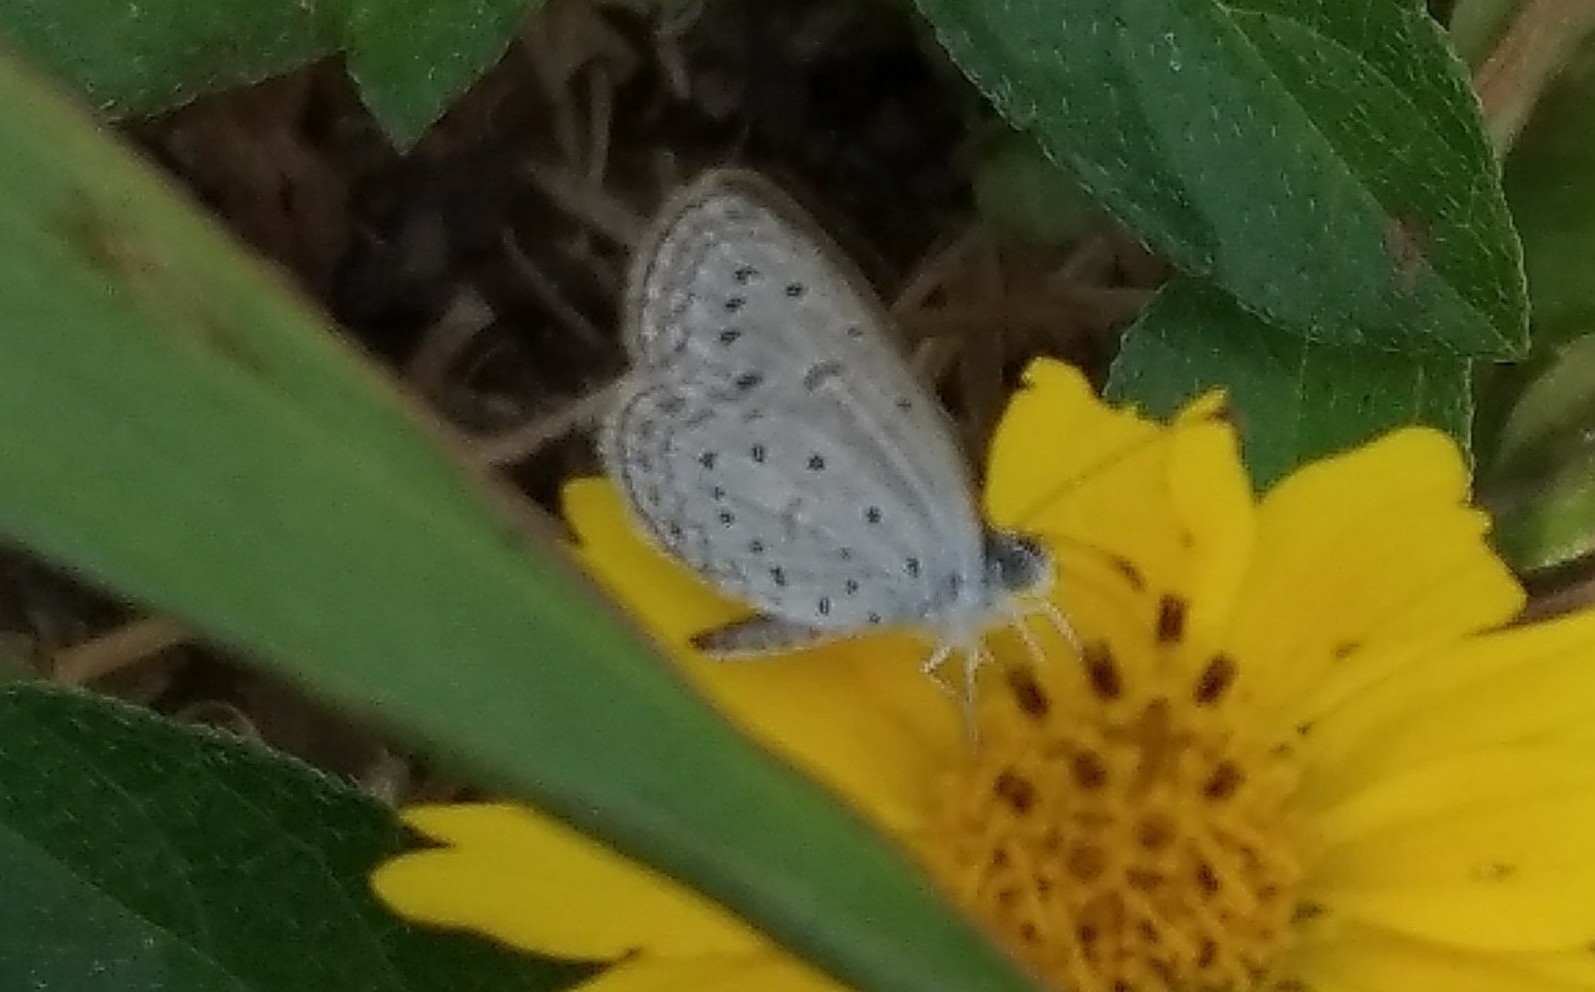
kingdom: Animalia
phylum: Arthropoda
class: Insecta
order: Lepidoptera
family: Lycaenidae
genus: Zizula
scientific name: Zizula hylax
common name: Gaika blue
